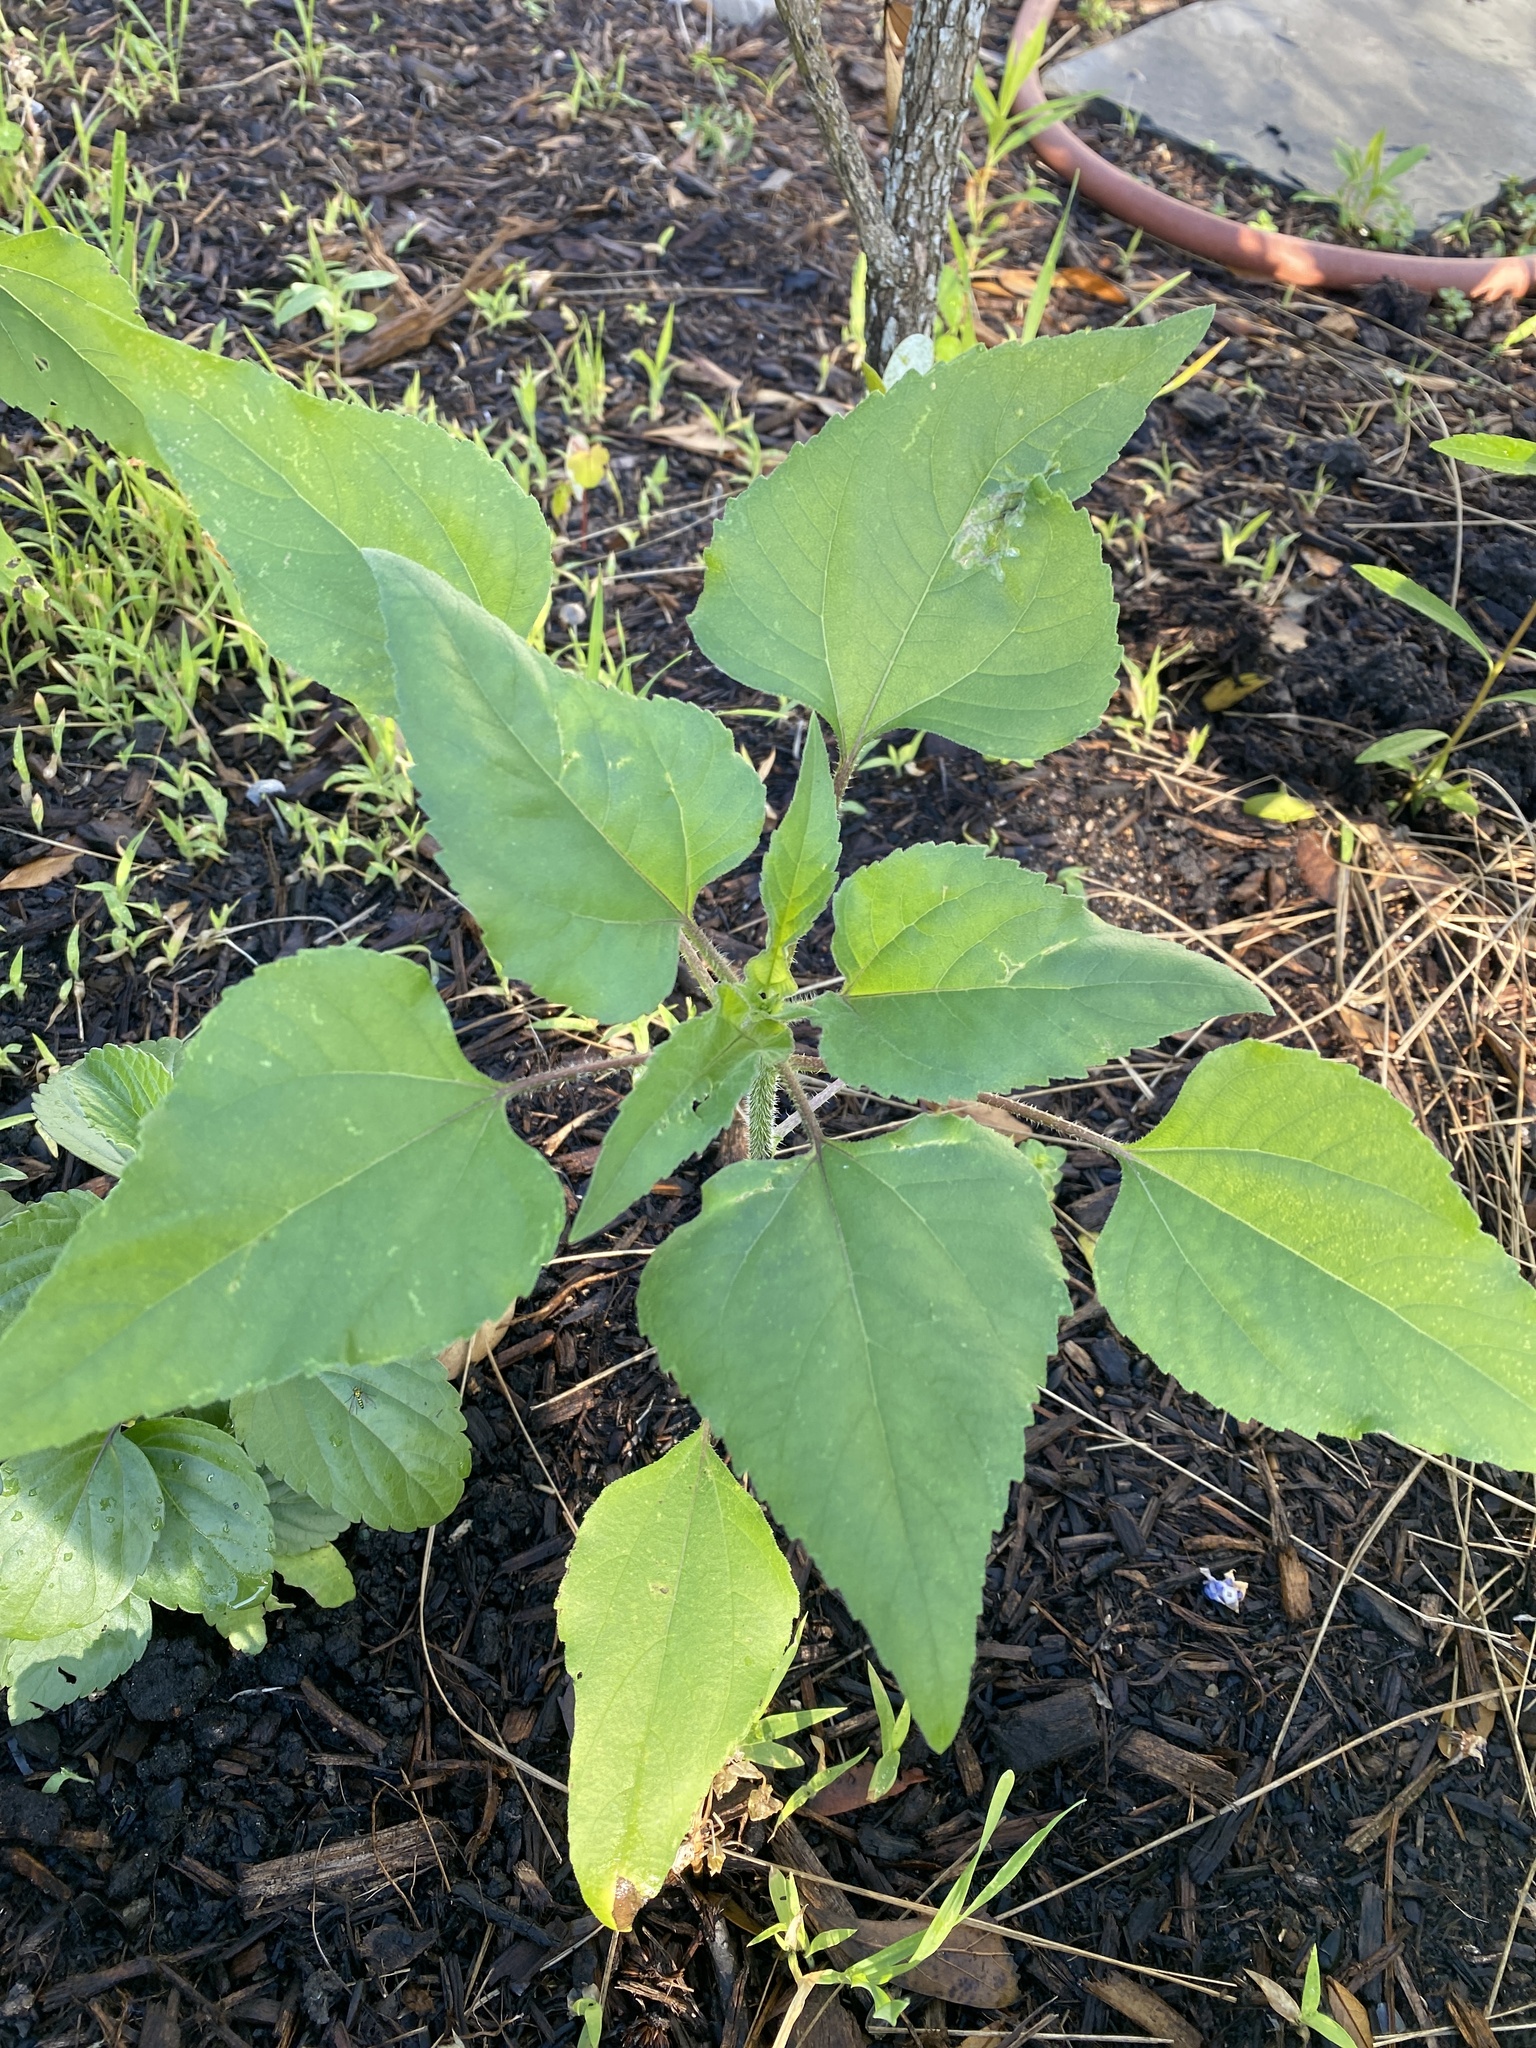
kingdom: Plantae
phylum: Tracheophyta
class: Magnoliopsida
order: Asterales
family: Asteraceae
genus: Helianthus
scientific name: Helianthus annuus
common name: Sunflower
